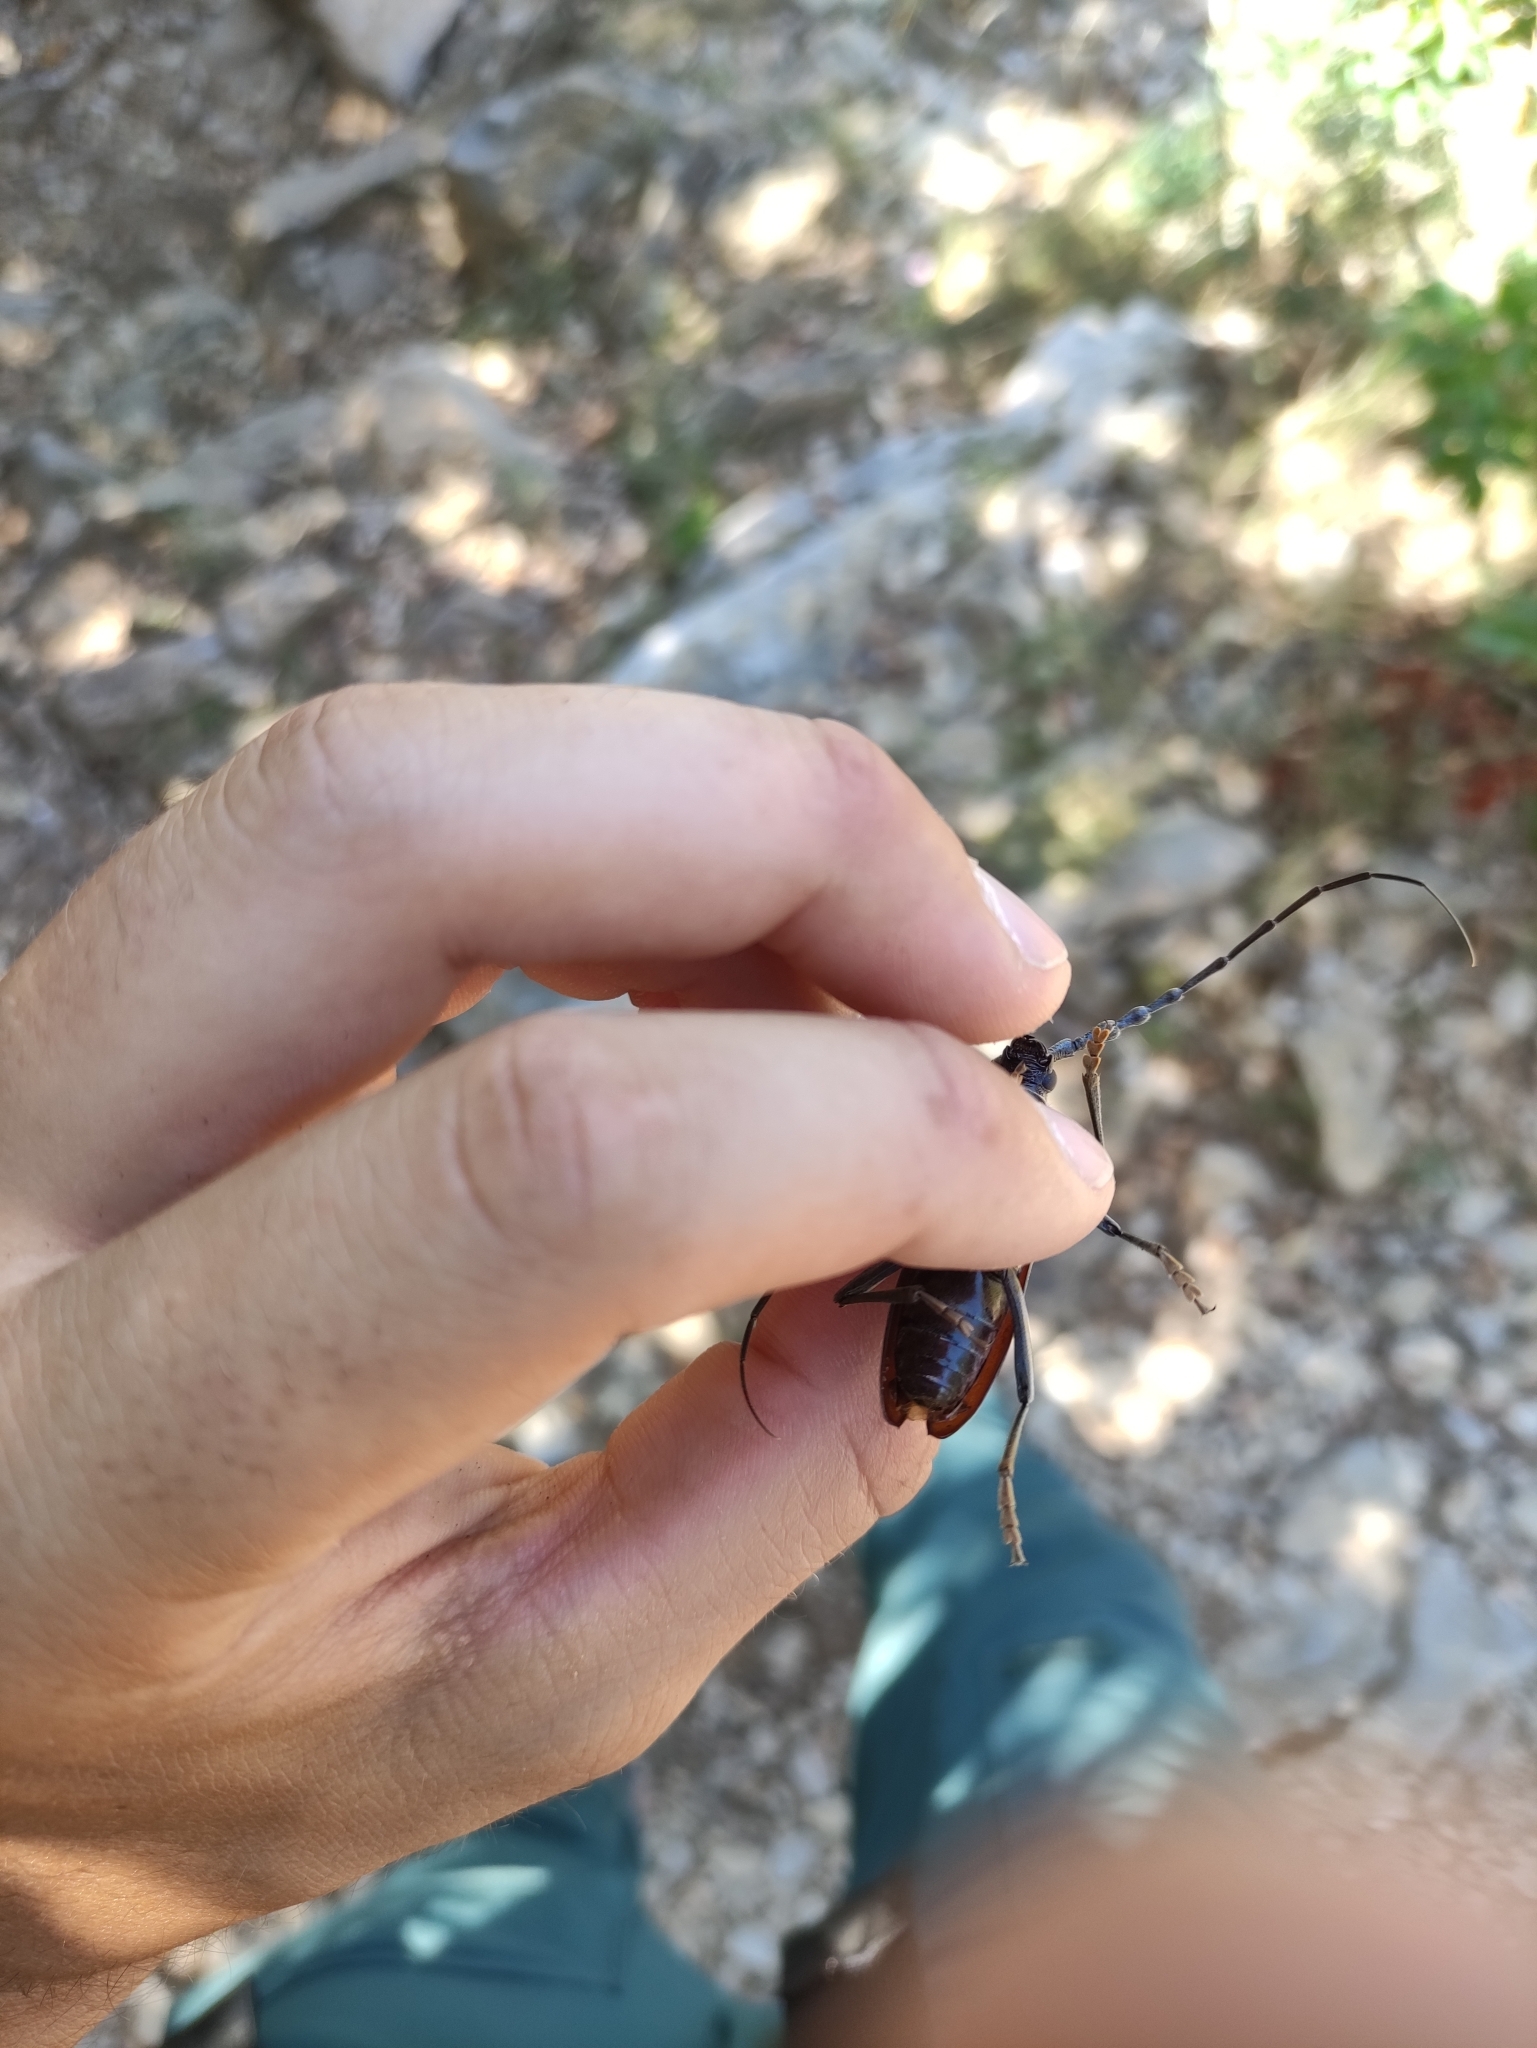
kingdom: Animalia
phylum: Arthropoda
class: Insecta
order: Coleoptera
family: Cerambycidae
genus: Cerambyx
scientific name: Cerambyx welensii
